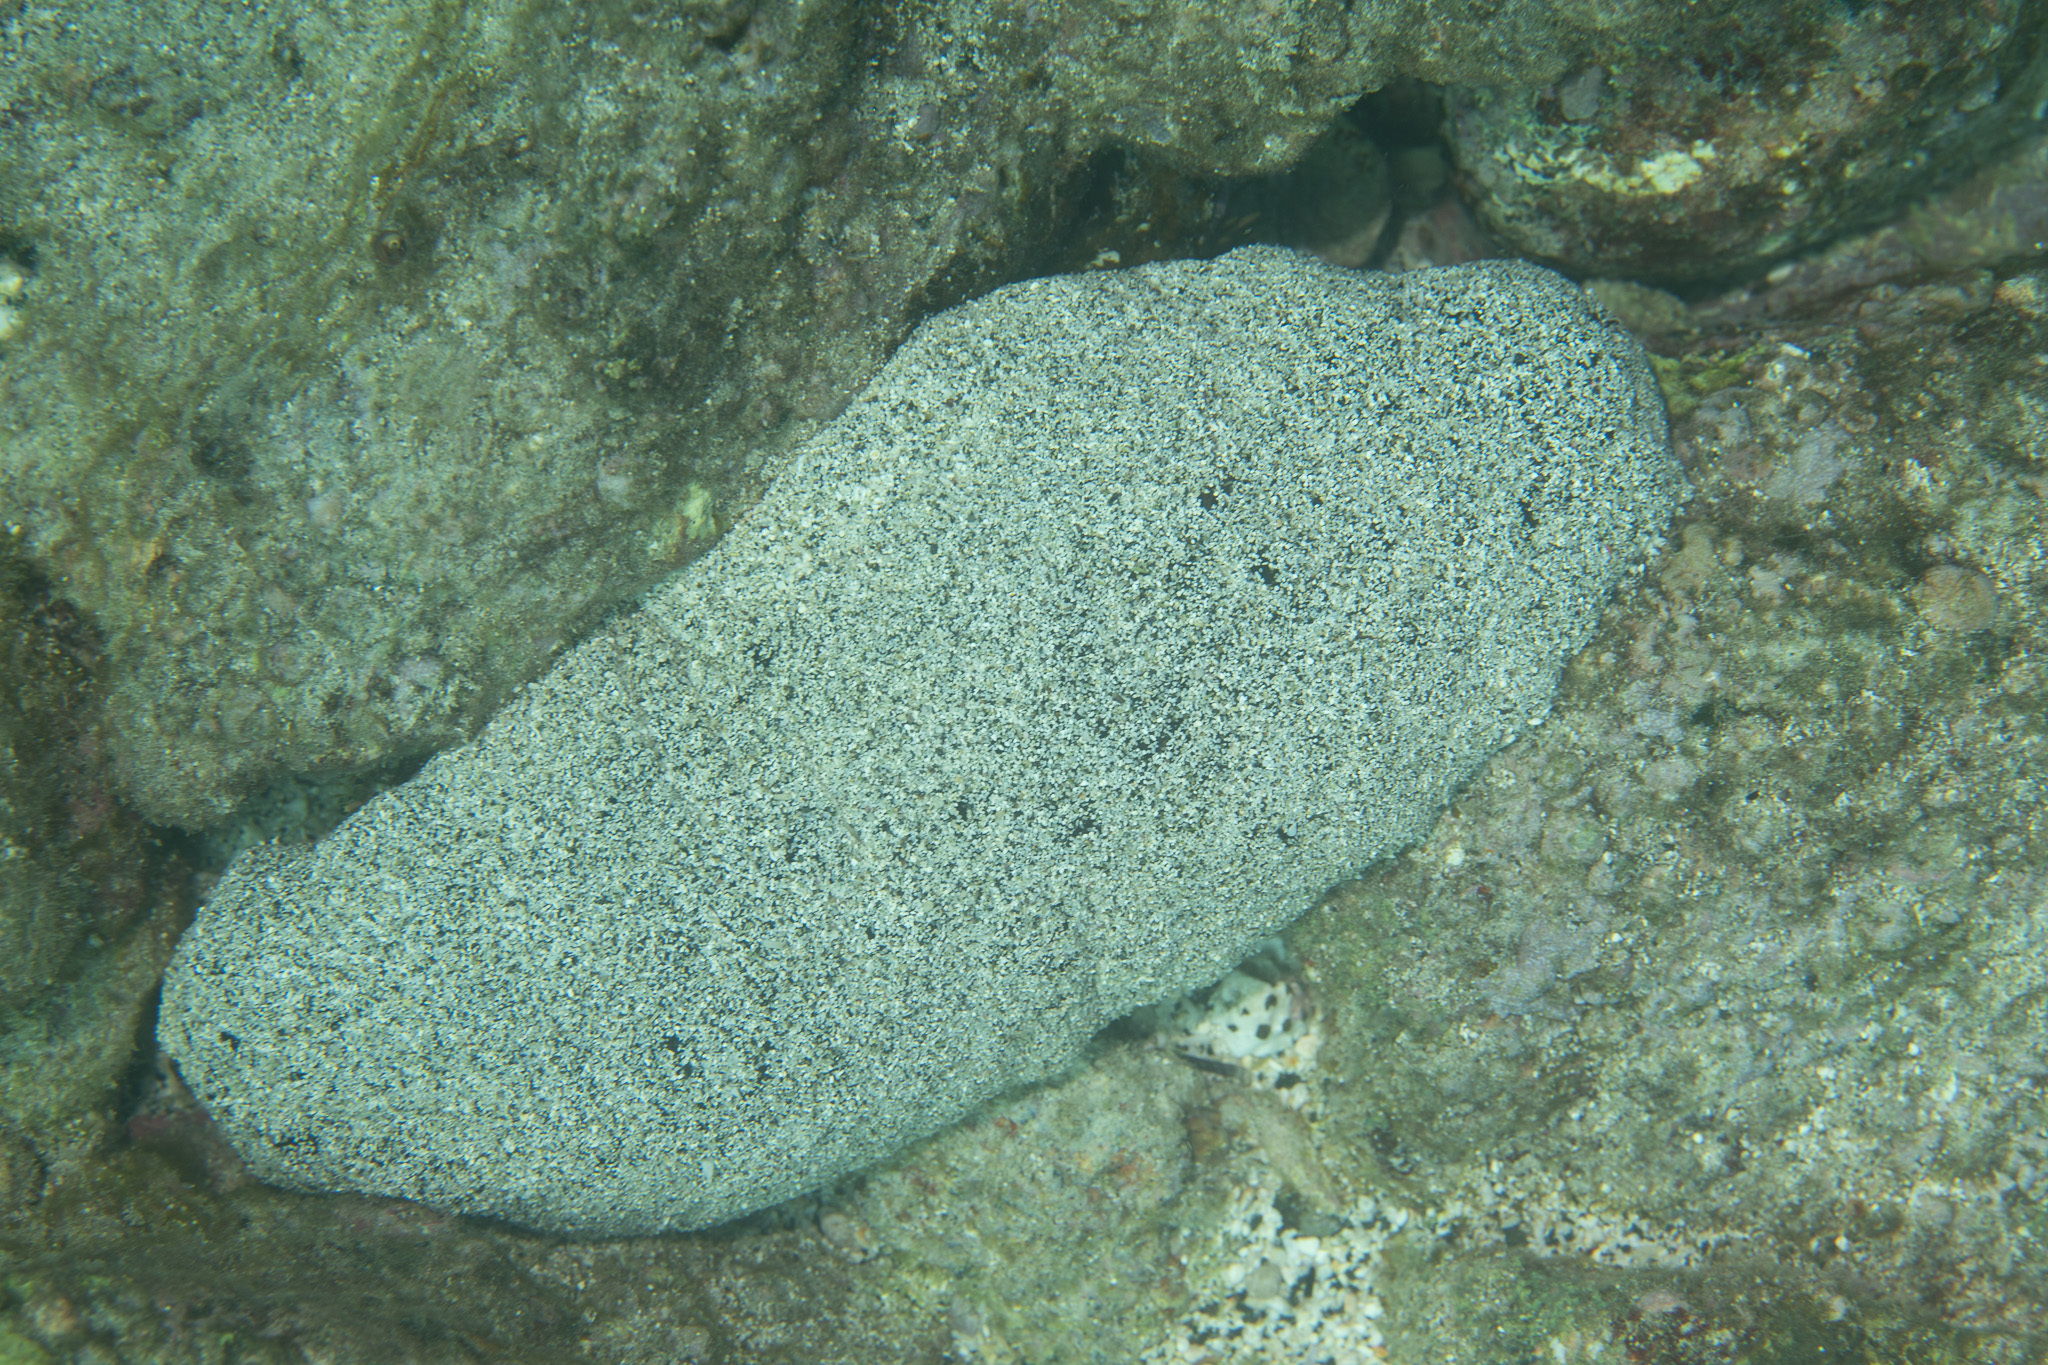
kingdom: Animalia
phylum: Echinodermata
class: Holothuroidea
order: Holothuriida
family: Holothuriidae
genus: Holothuria
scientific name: Holothuria whitmaei
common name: Black teatfish
